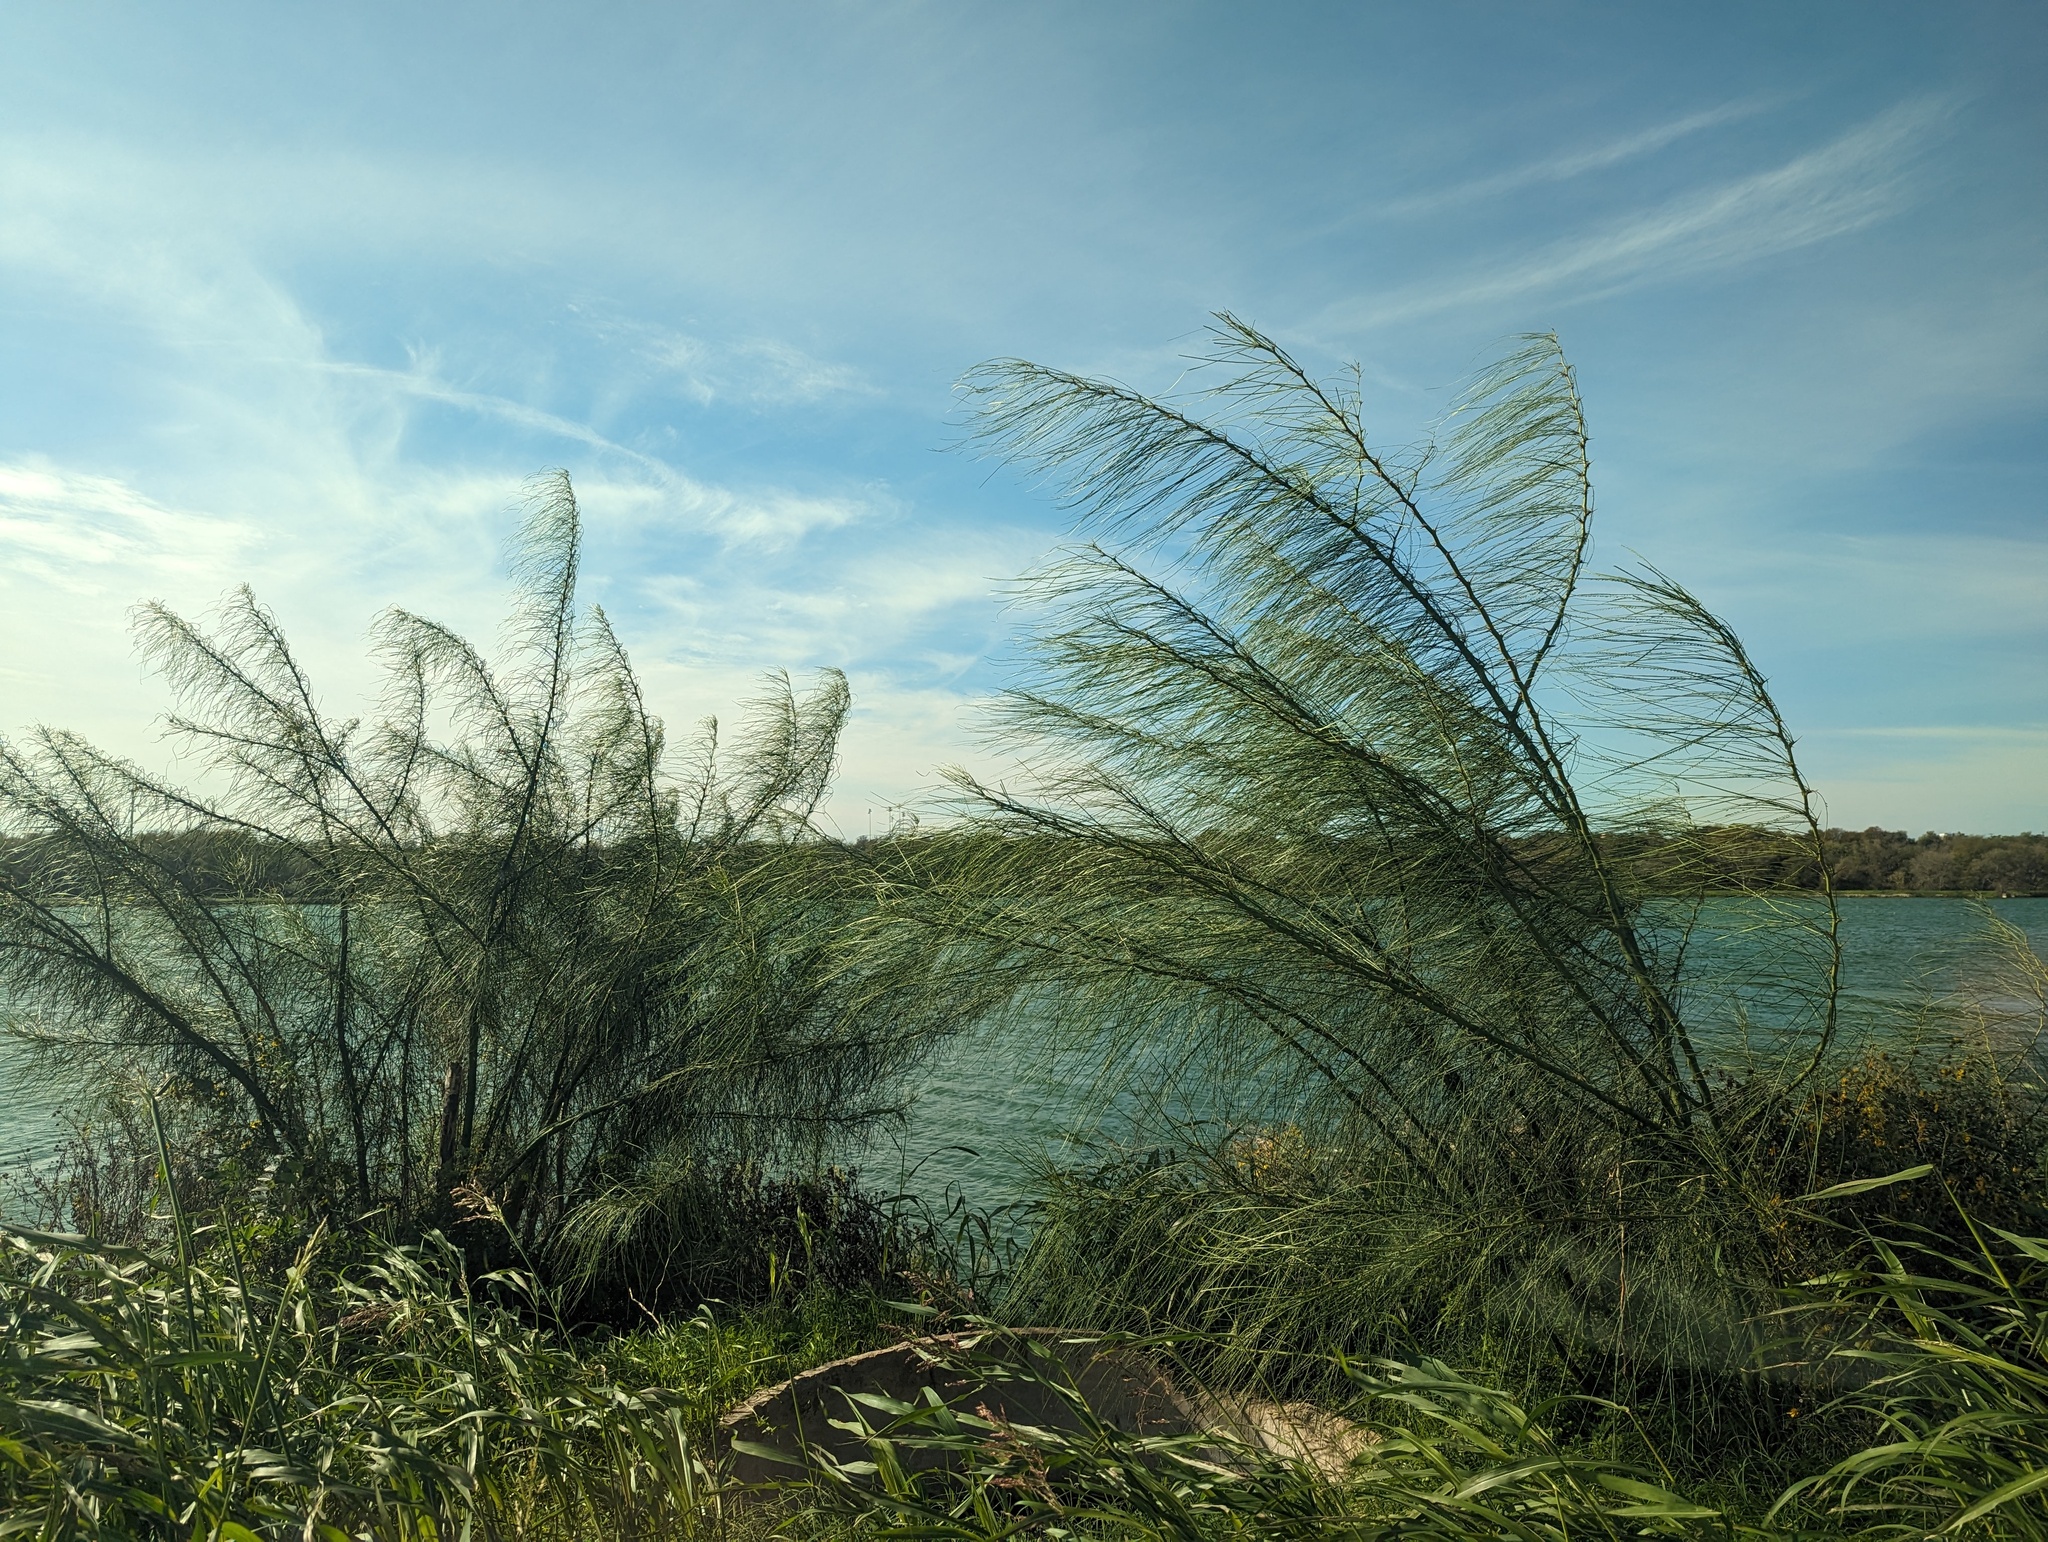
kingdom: Plantae
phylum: Tracheophyta
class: Magnoliopsida
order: Fabales
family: Fabaceae
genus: Parkinsonia
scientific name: Parkinsonia aculeata
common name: Jerusalem thorn
